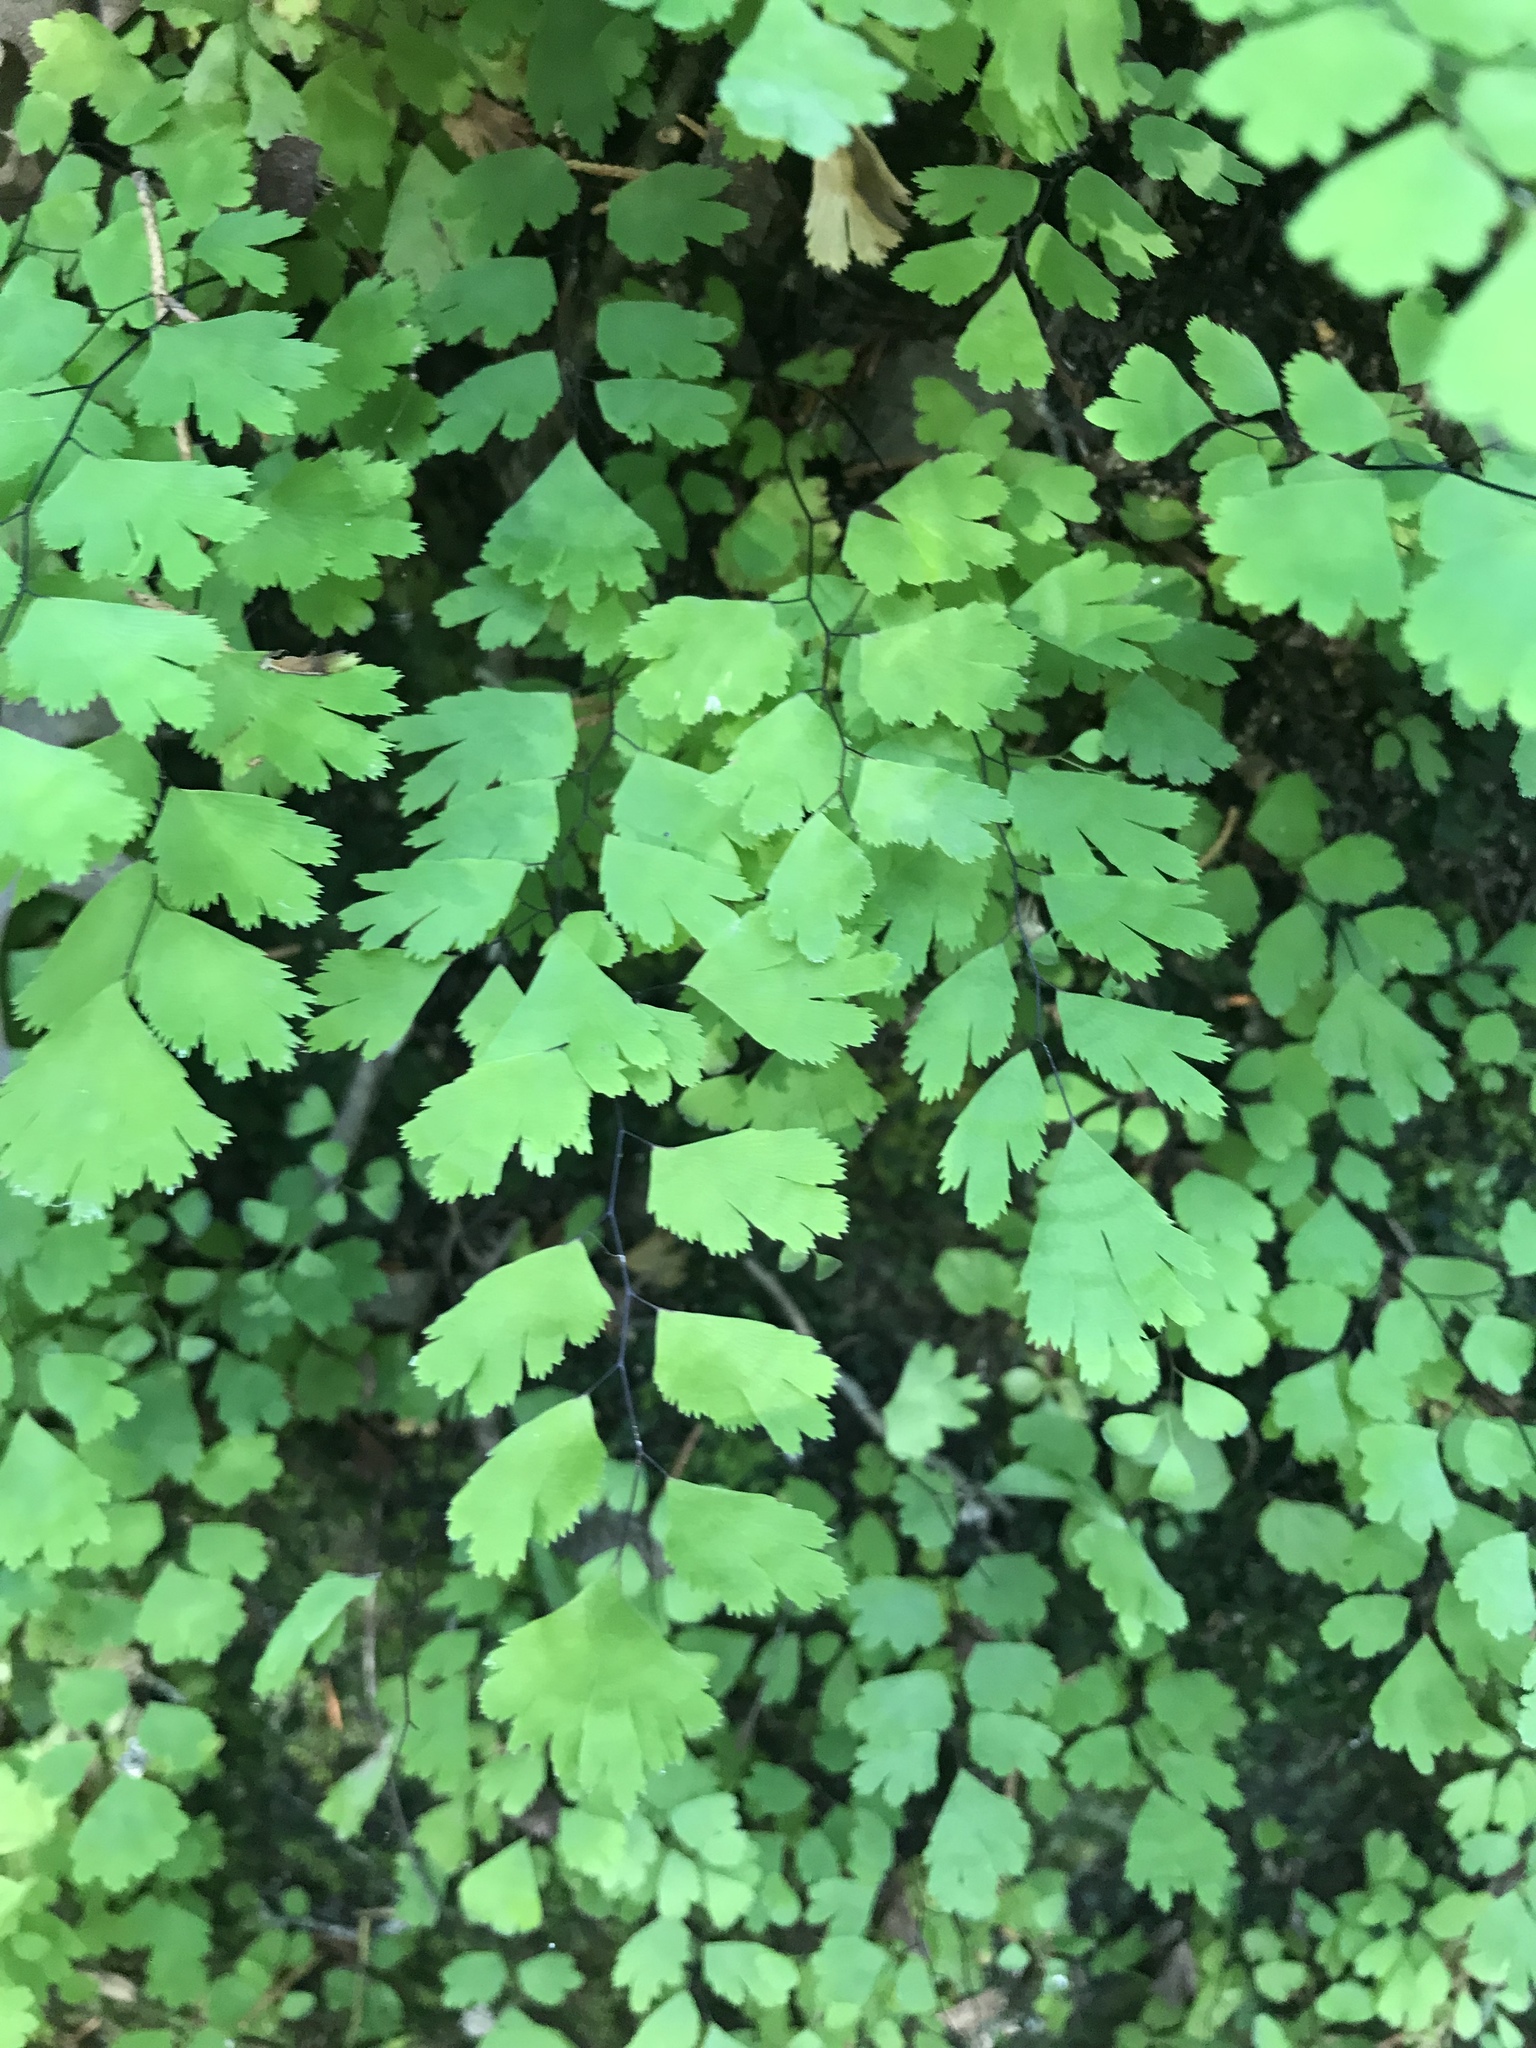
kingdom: Plantae
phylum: Tracheophyta
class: Polypodiopsida
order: Polypodiales
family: Pteridaceae
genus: Adiantum
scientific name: Adiantum capillus-veneris
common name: Maidenhair fern
